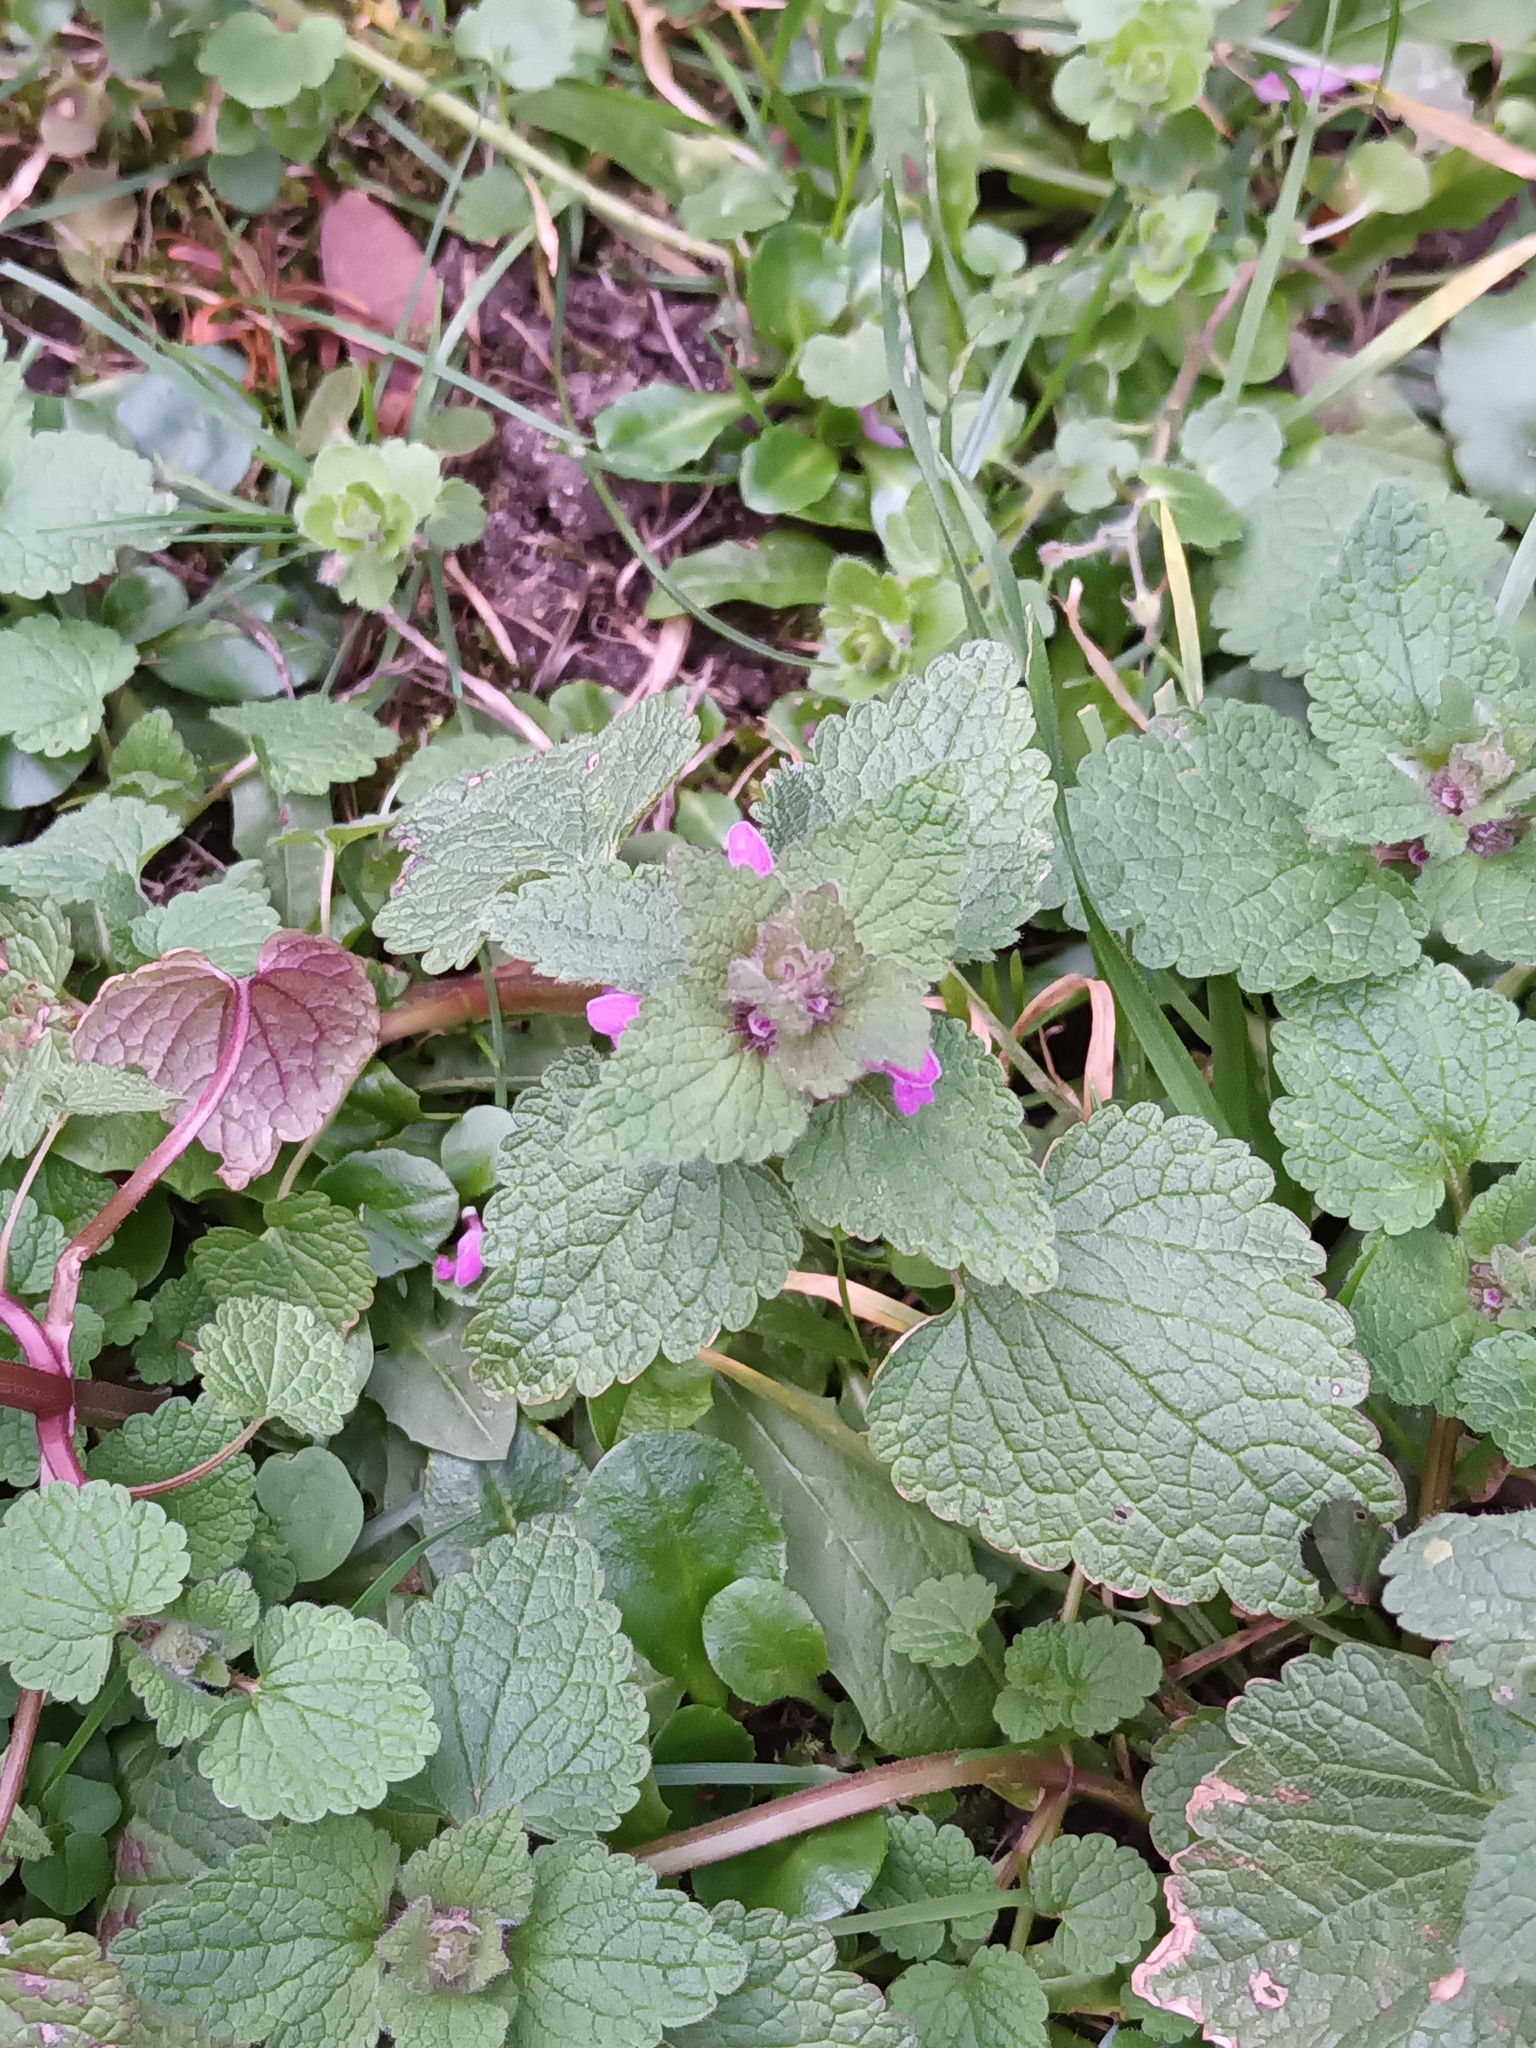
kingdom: Plantae
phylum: Tracheophyta
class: Magnoliopsida
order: Lamiales
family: Lamiaceae
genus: Lamium
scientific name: Lamium purpureum
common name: Red dead-nettle
